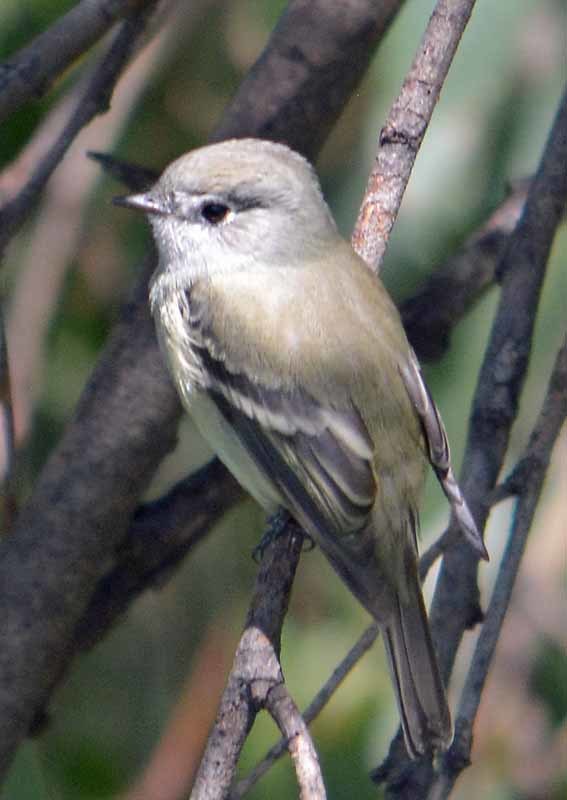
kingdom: Animalia
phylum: Chordata
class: Aves
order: Passeriformes
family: Tyrannidae
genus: Empidonax
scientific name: Empidonax hammondii
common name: Hammond's flycatcher
